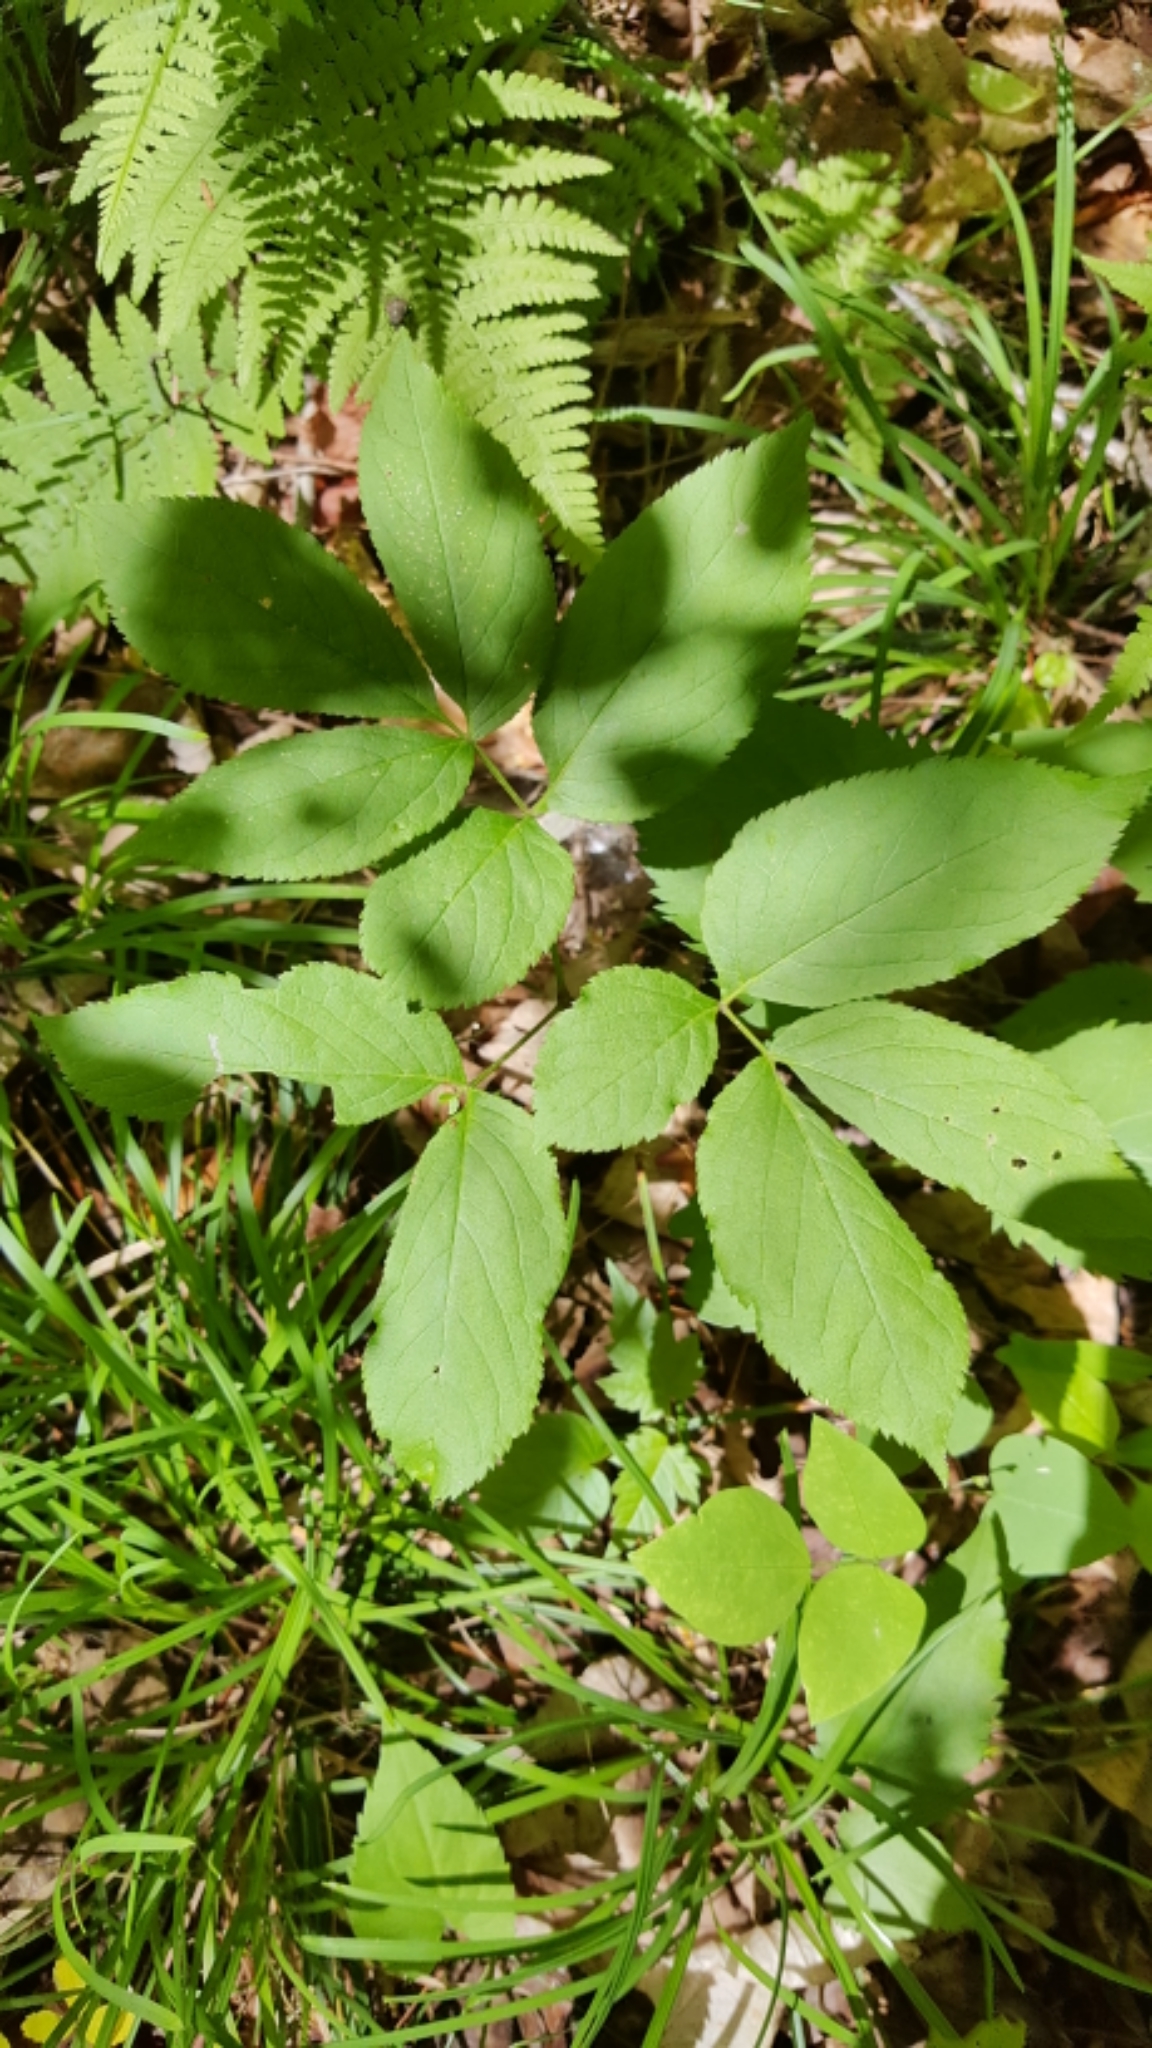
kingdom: Plantae
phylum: Tracheophyta
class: Magnoliopsida
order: Apiales
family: Araliaceae
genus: Aralia
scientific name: Aralia nudicaulis
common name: Wild sarsaparilla
